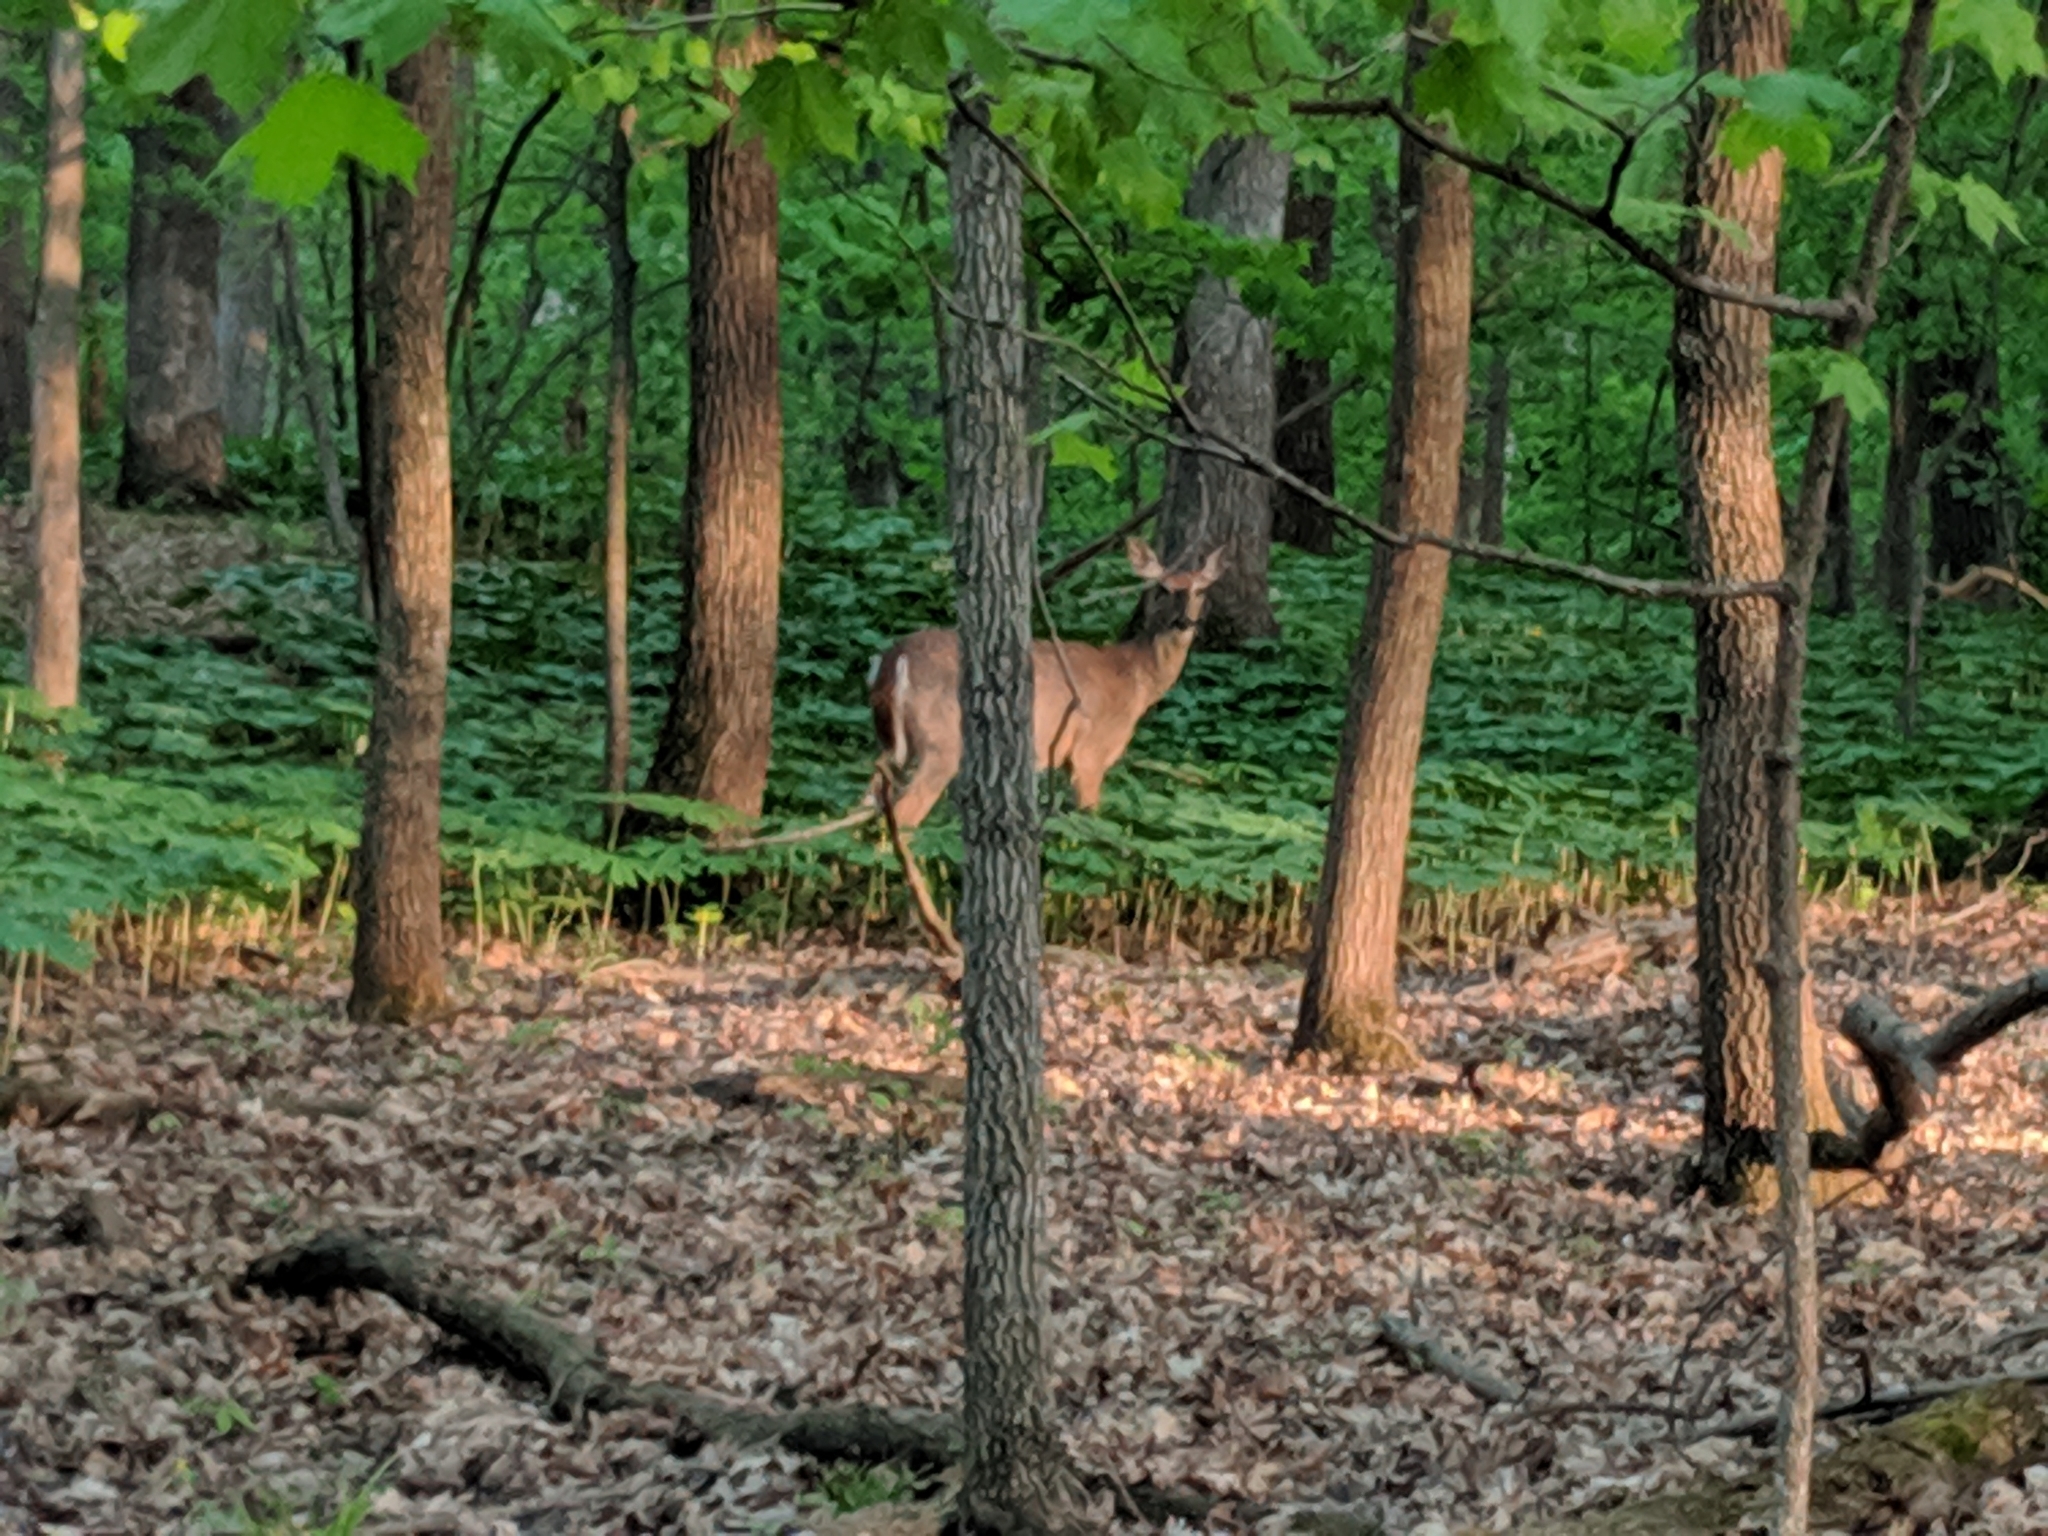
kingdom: Animalia
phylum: Chordata
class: Mammalia
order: Artiodactyla
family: Cervidae
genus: Odocoileus
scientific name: Odocoileus virginianus
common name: White-tailed deer
